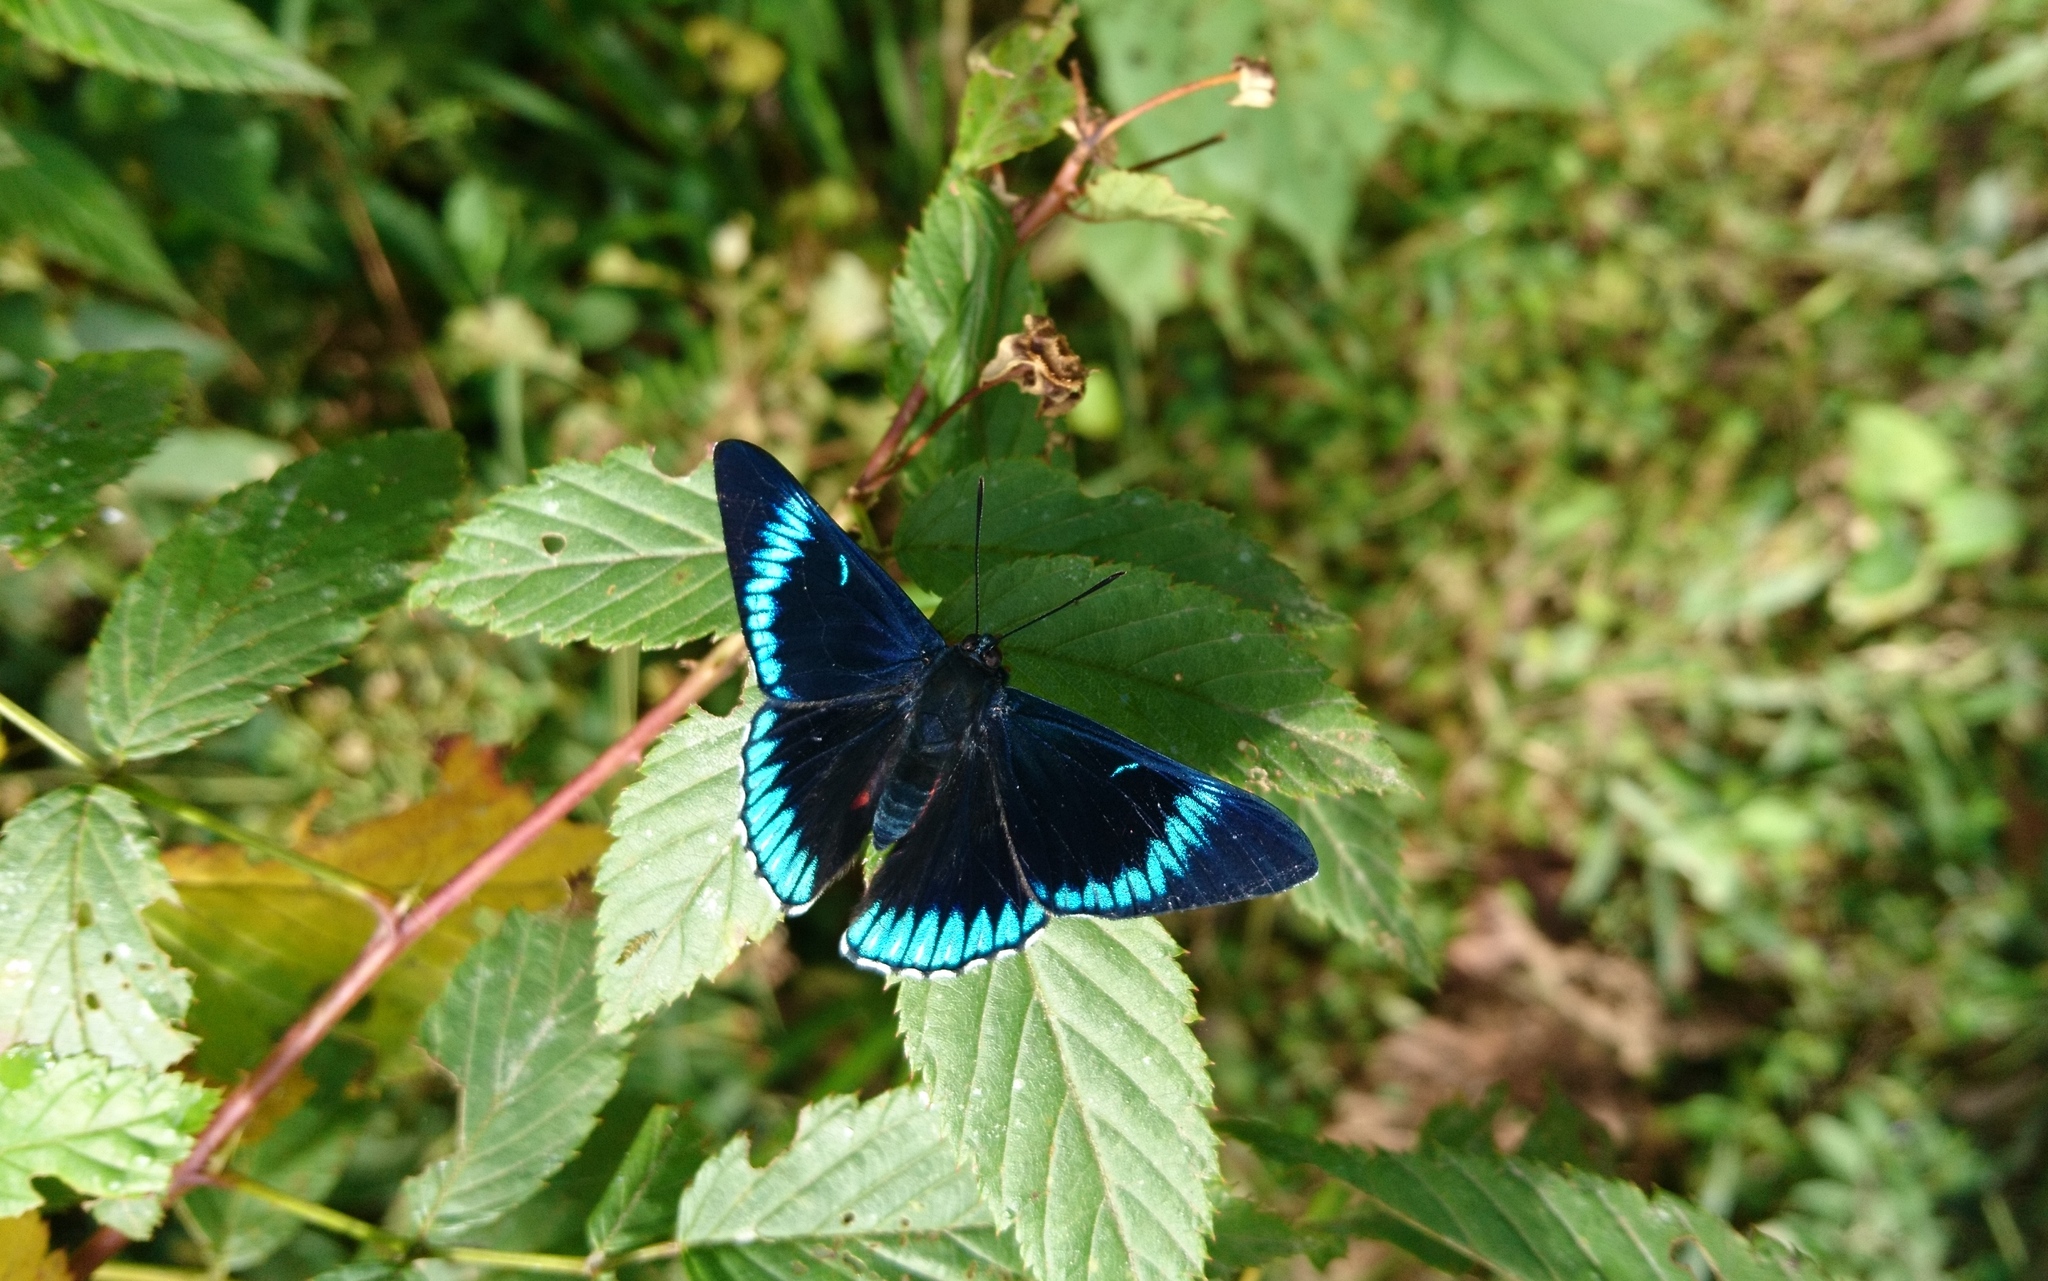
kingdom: Animalia
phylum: Arthropoda
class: Insecta
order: Lepidoptera
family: Lycaenidae
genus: Necyria
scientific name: Necyria duellona
